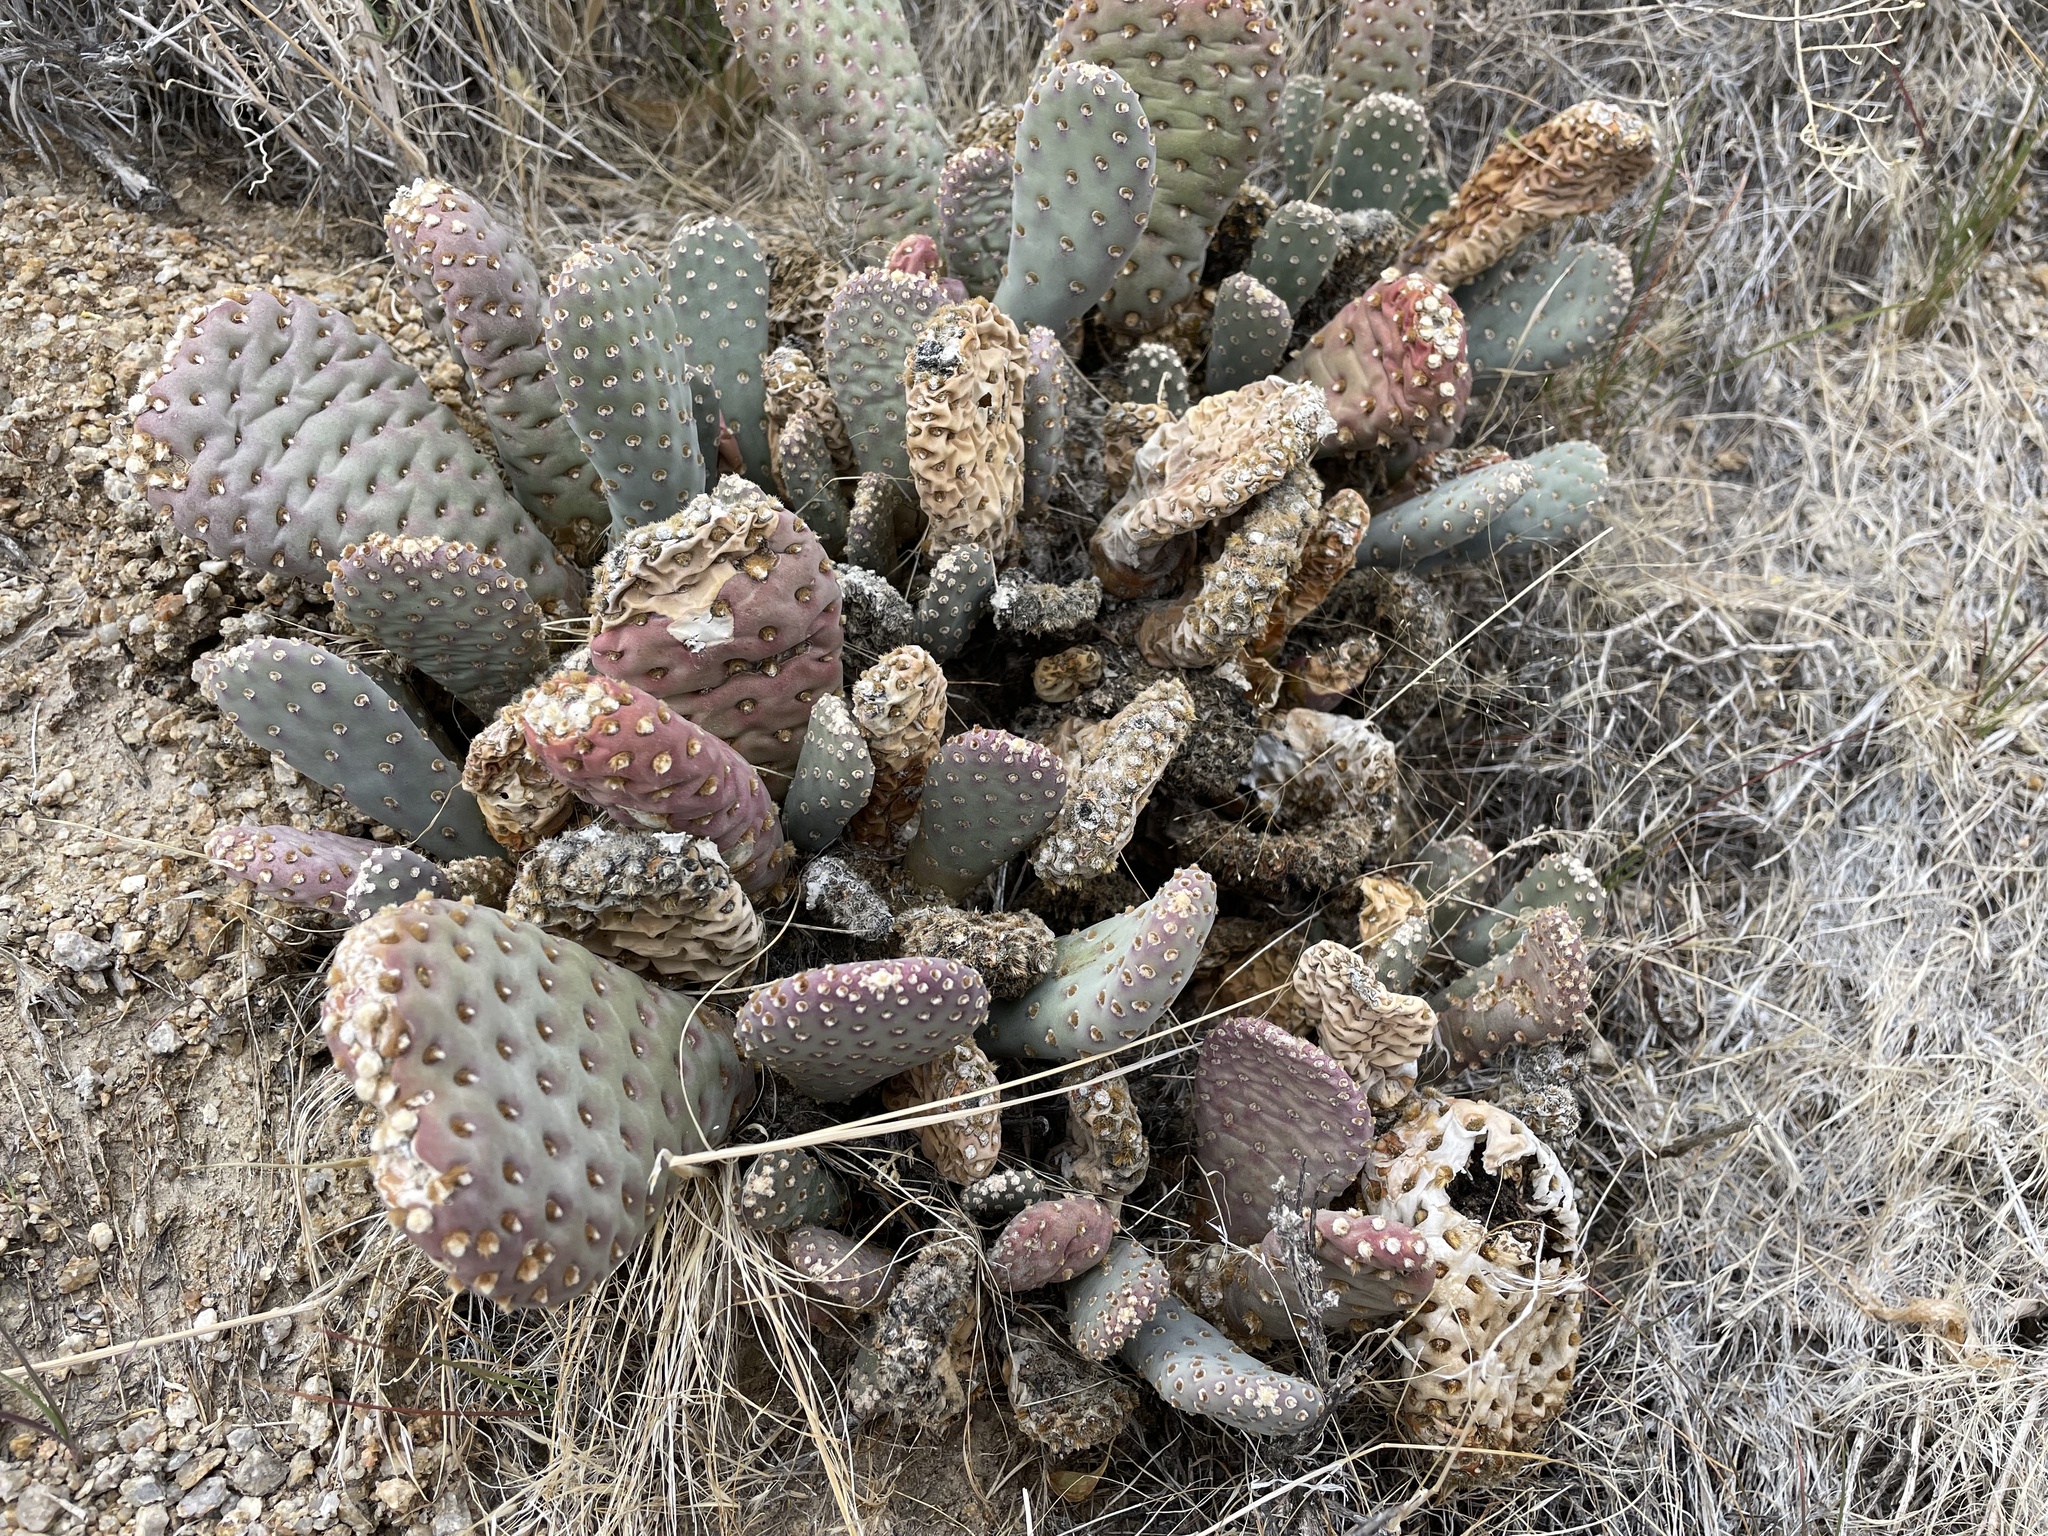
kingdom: Plantae
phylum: Tracheophyta
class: Magnoliopsida
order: Caryophyllales
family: Cactaceae
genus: Opuntia
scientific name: Opuntia basilaris
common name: Beavertail prickly-pear
